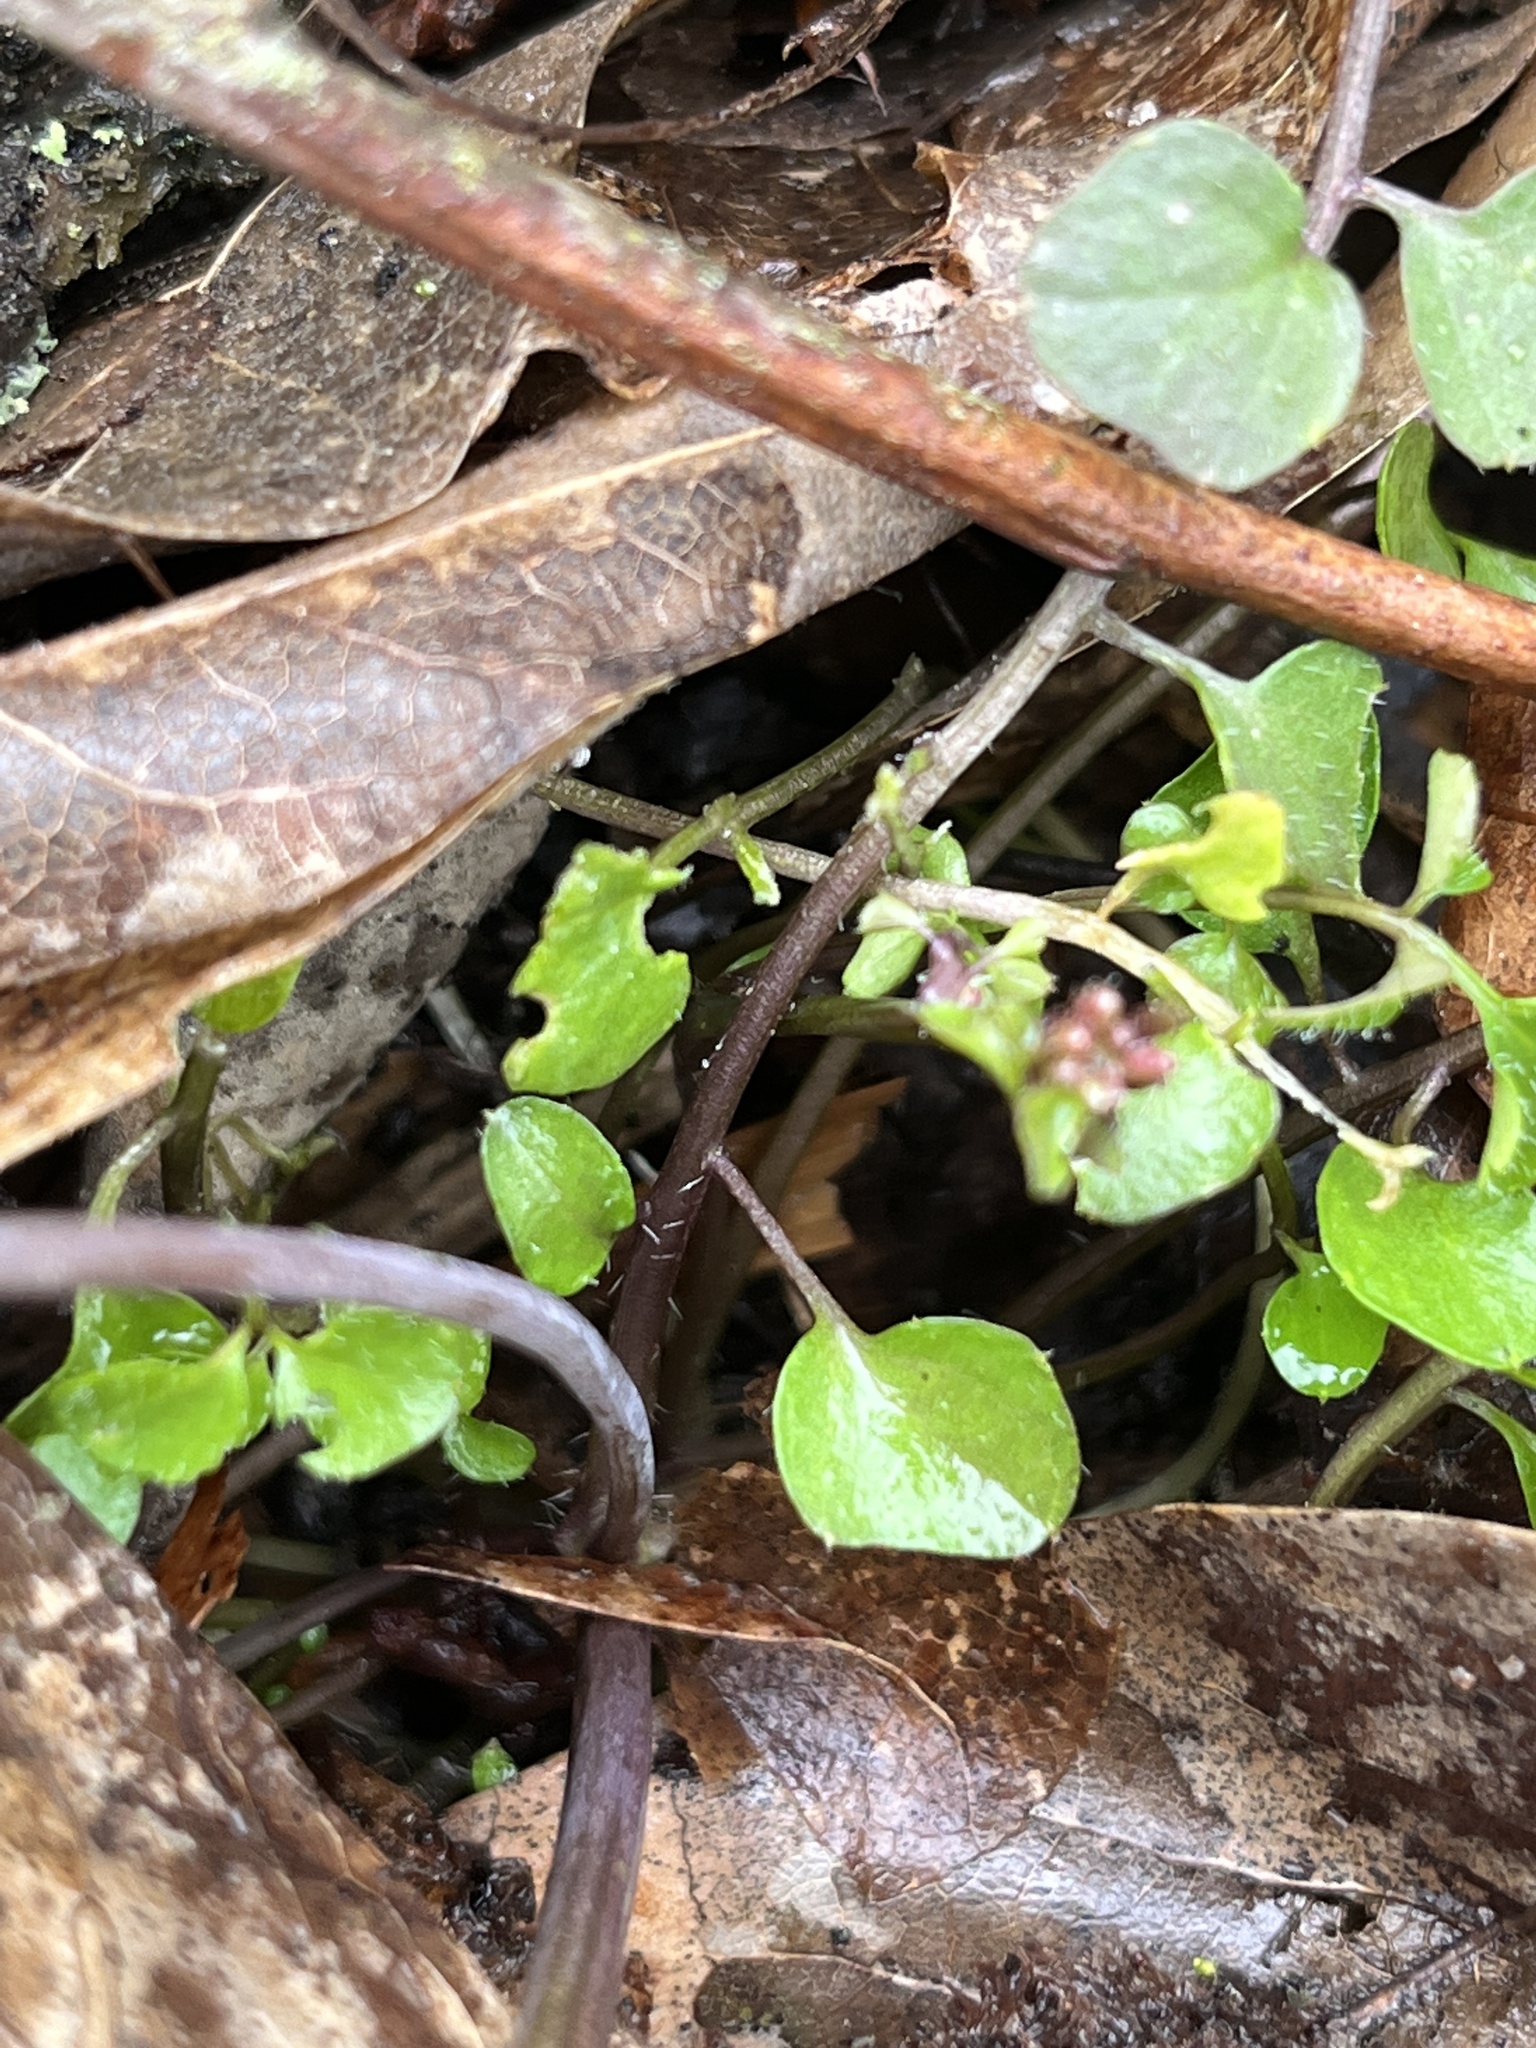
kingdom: Plantae
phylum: Tracheophyta
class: Magnoliopsida
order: Brassicales
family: Brassicaceae
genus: Cardamine
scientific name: Cardamine hirsuta
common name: Hairy bittercress
